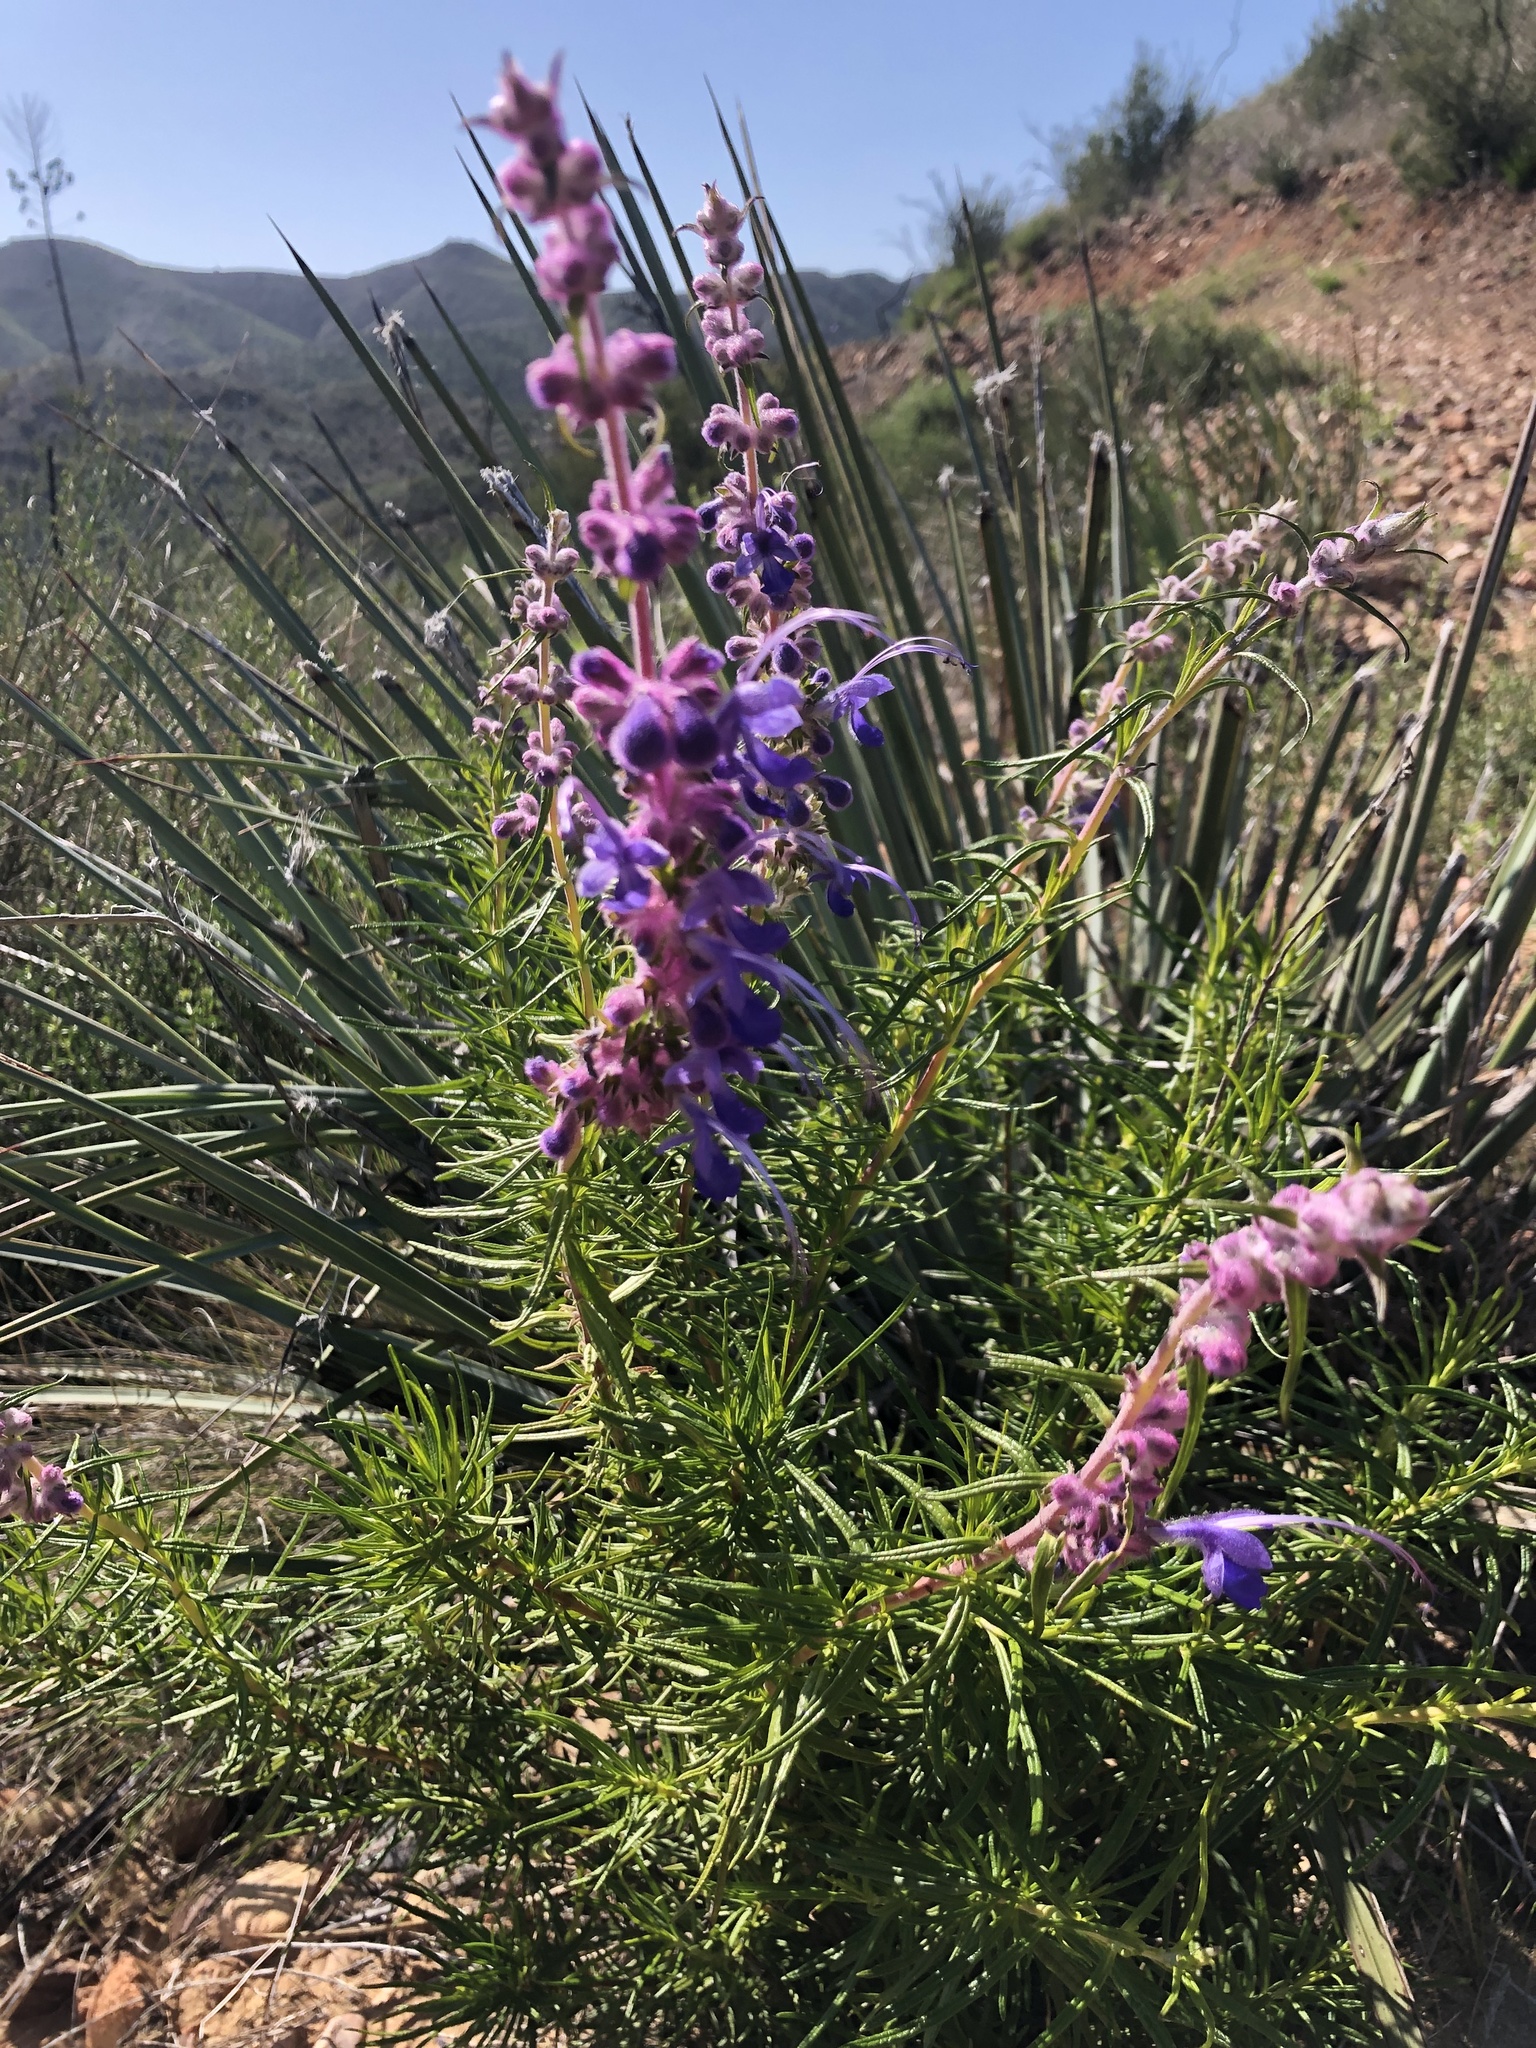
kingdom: Plantae
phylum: Tracheophyta
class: Magnoliopsida
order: Lamiales
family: Lamiaceae
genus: Trichostema
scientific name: Trichostema lanatum
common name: Woolly bluecurls
